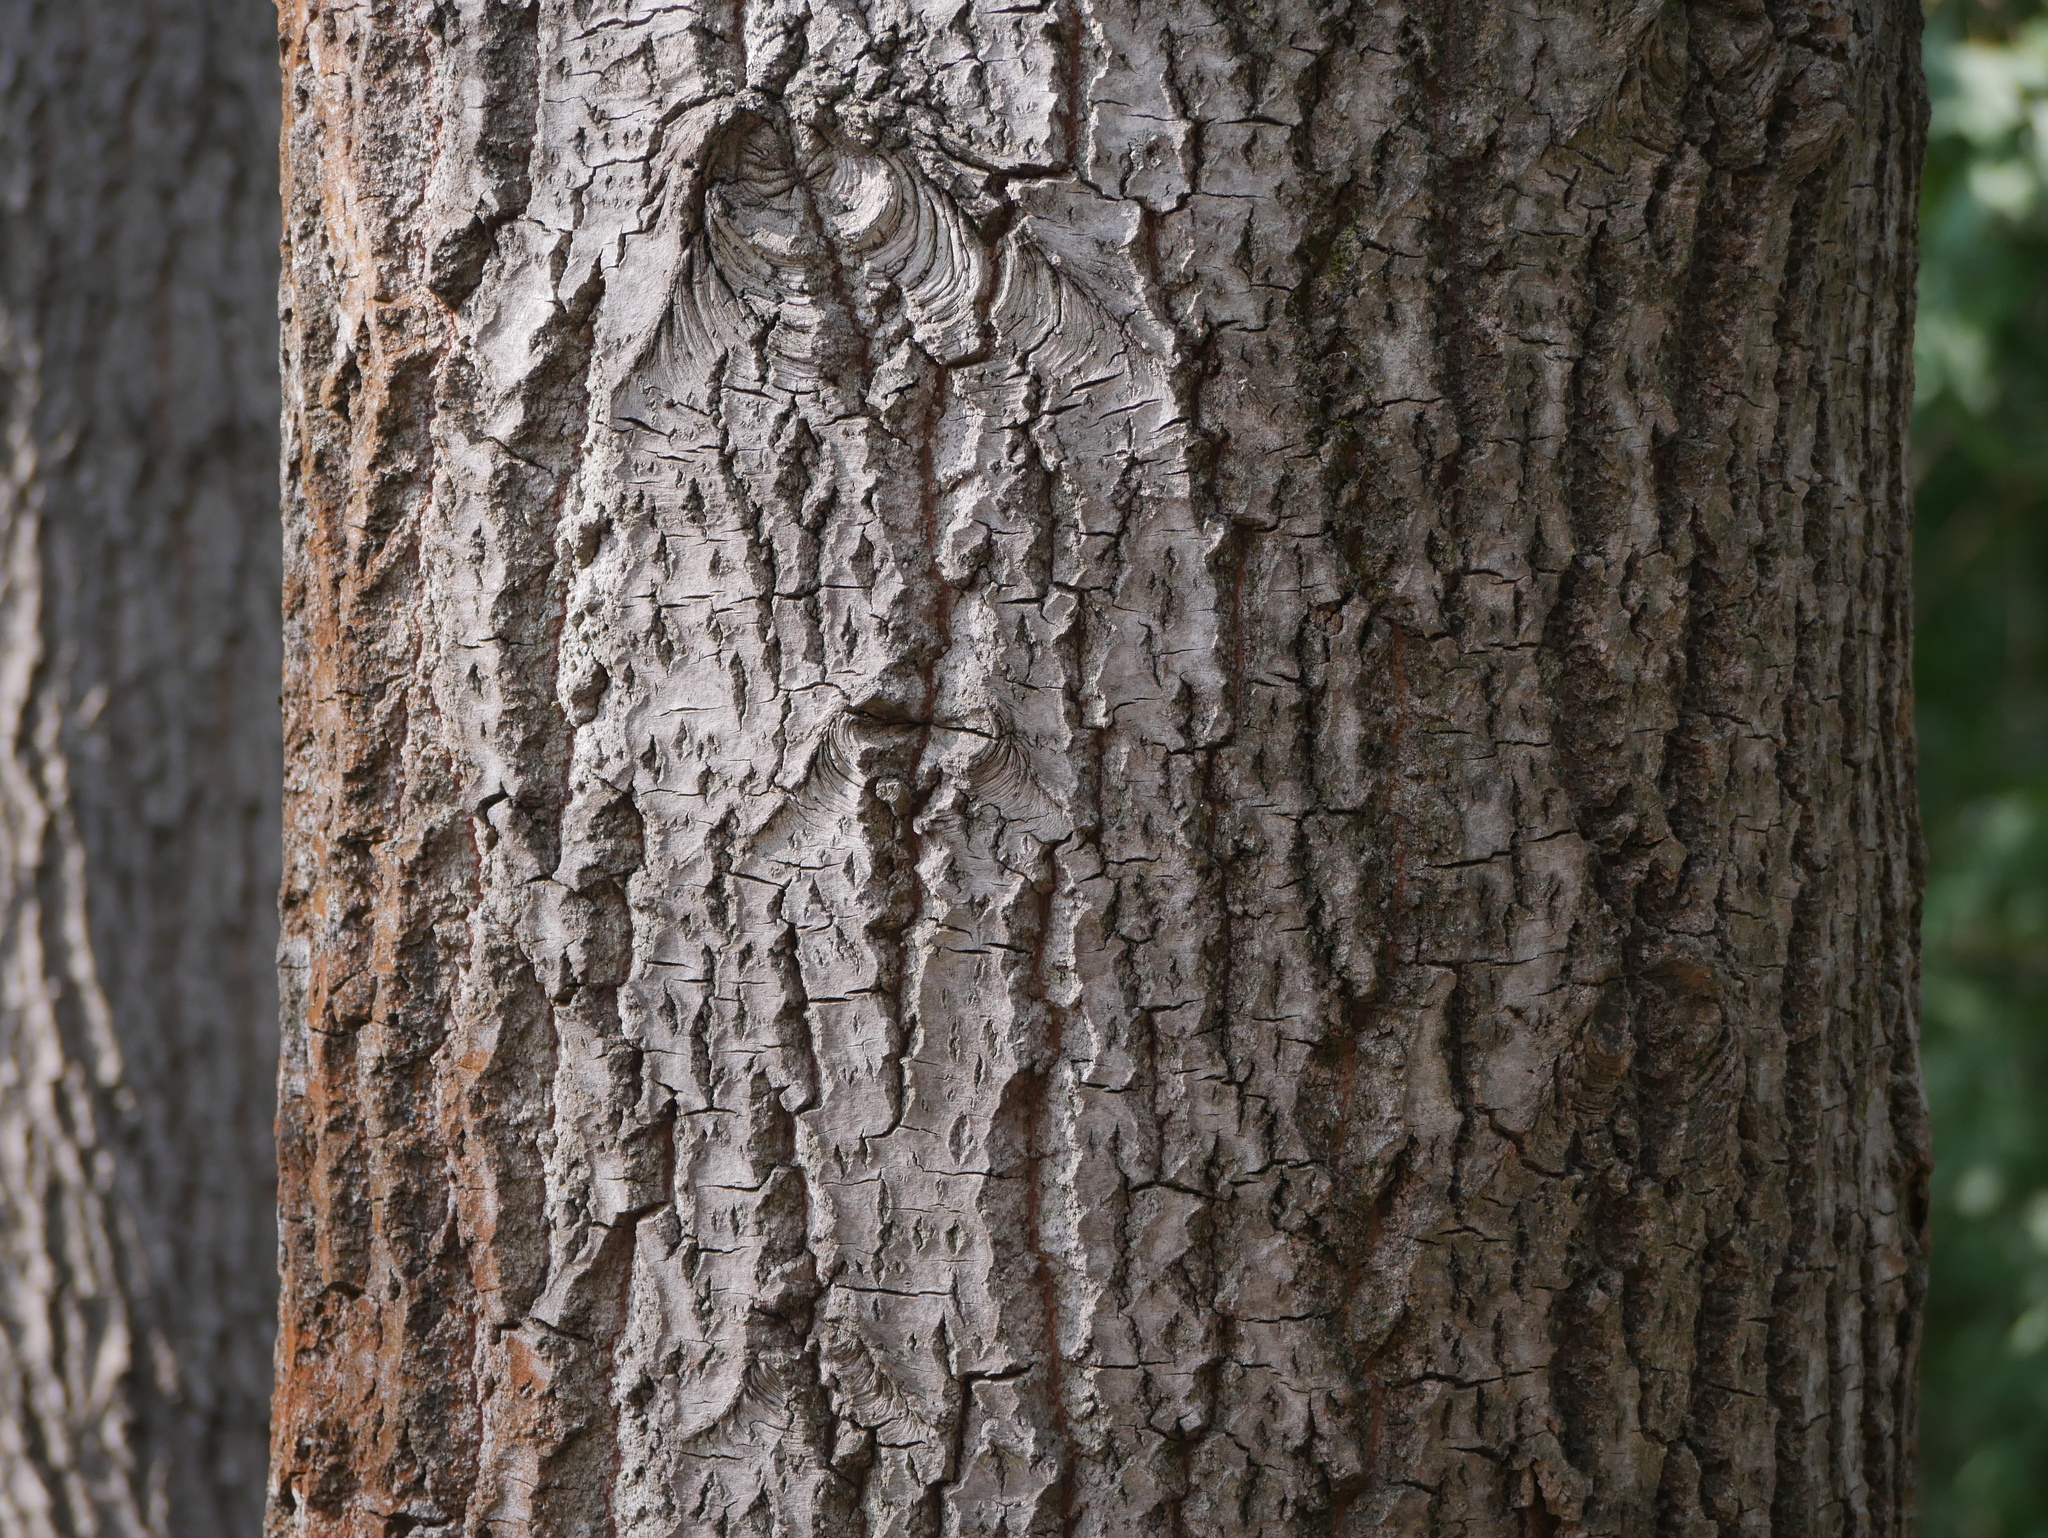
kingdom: Plantae
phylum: Tracheophyta
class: Magnoliopsida
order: Malpighiales
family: Salicaceae
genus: Populus
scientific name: Populus tremula
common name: European aspen
